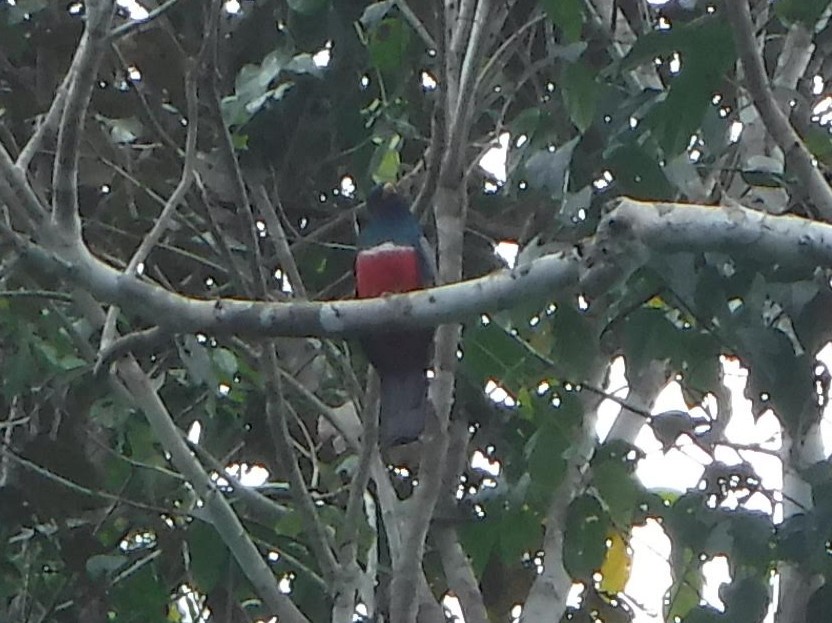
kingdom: Animalia
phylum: Chordata
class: Aves
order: Trogoniformes
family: Trogonidae
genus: Trogon
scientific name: Trogon melanurus
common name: Black-tailed trogon
